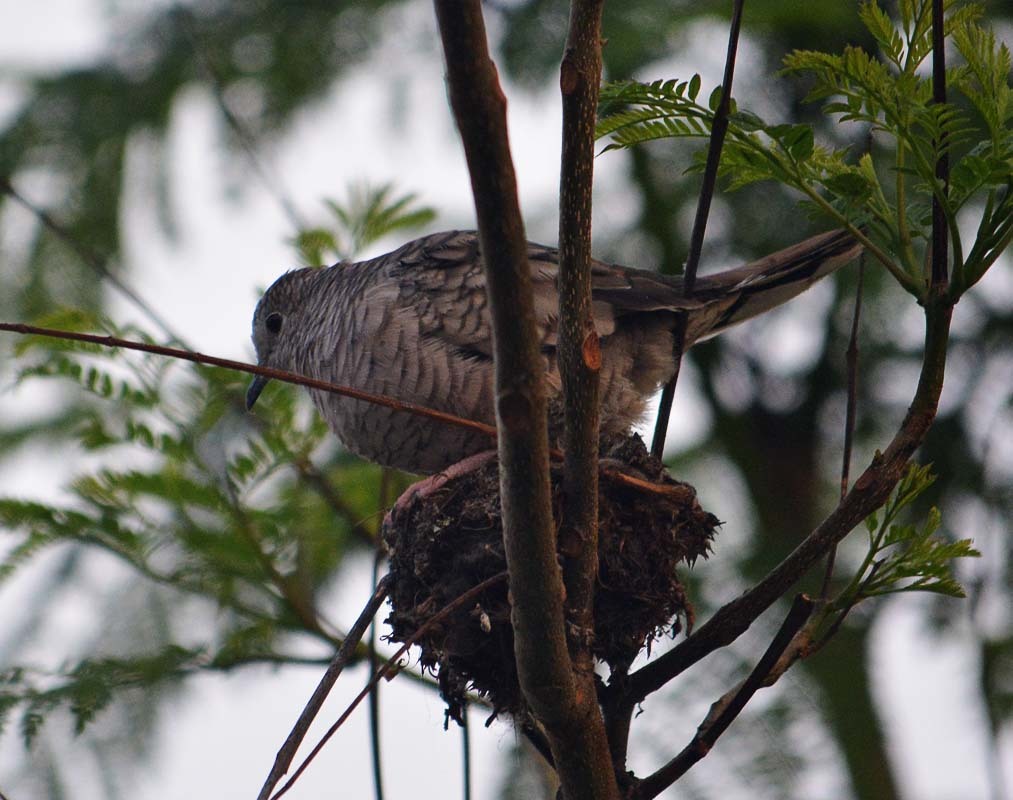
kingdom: Animalia
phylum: Chordata
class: Aves
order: Columbiformes
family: Columbidae
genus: Columbina
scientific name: Columbina inca
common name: Inca dove
